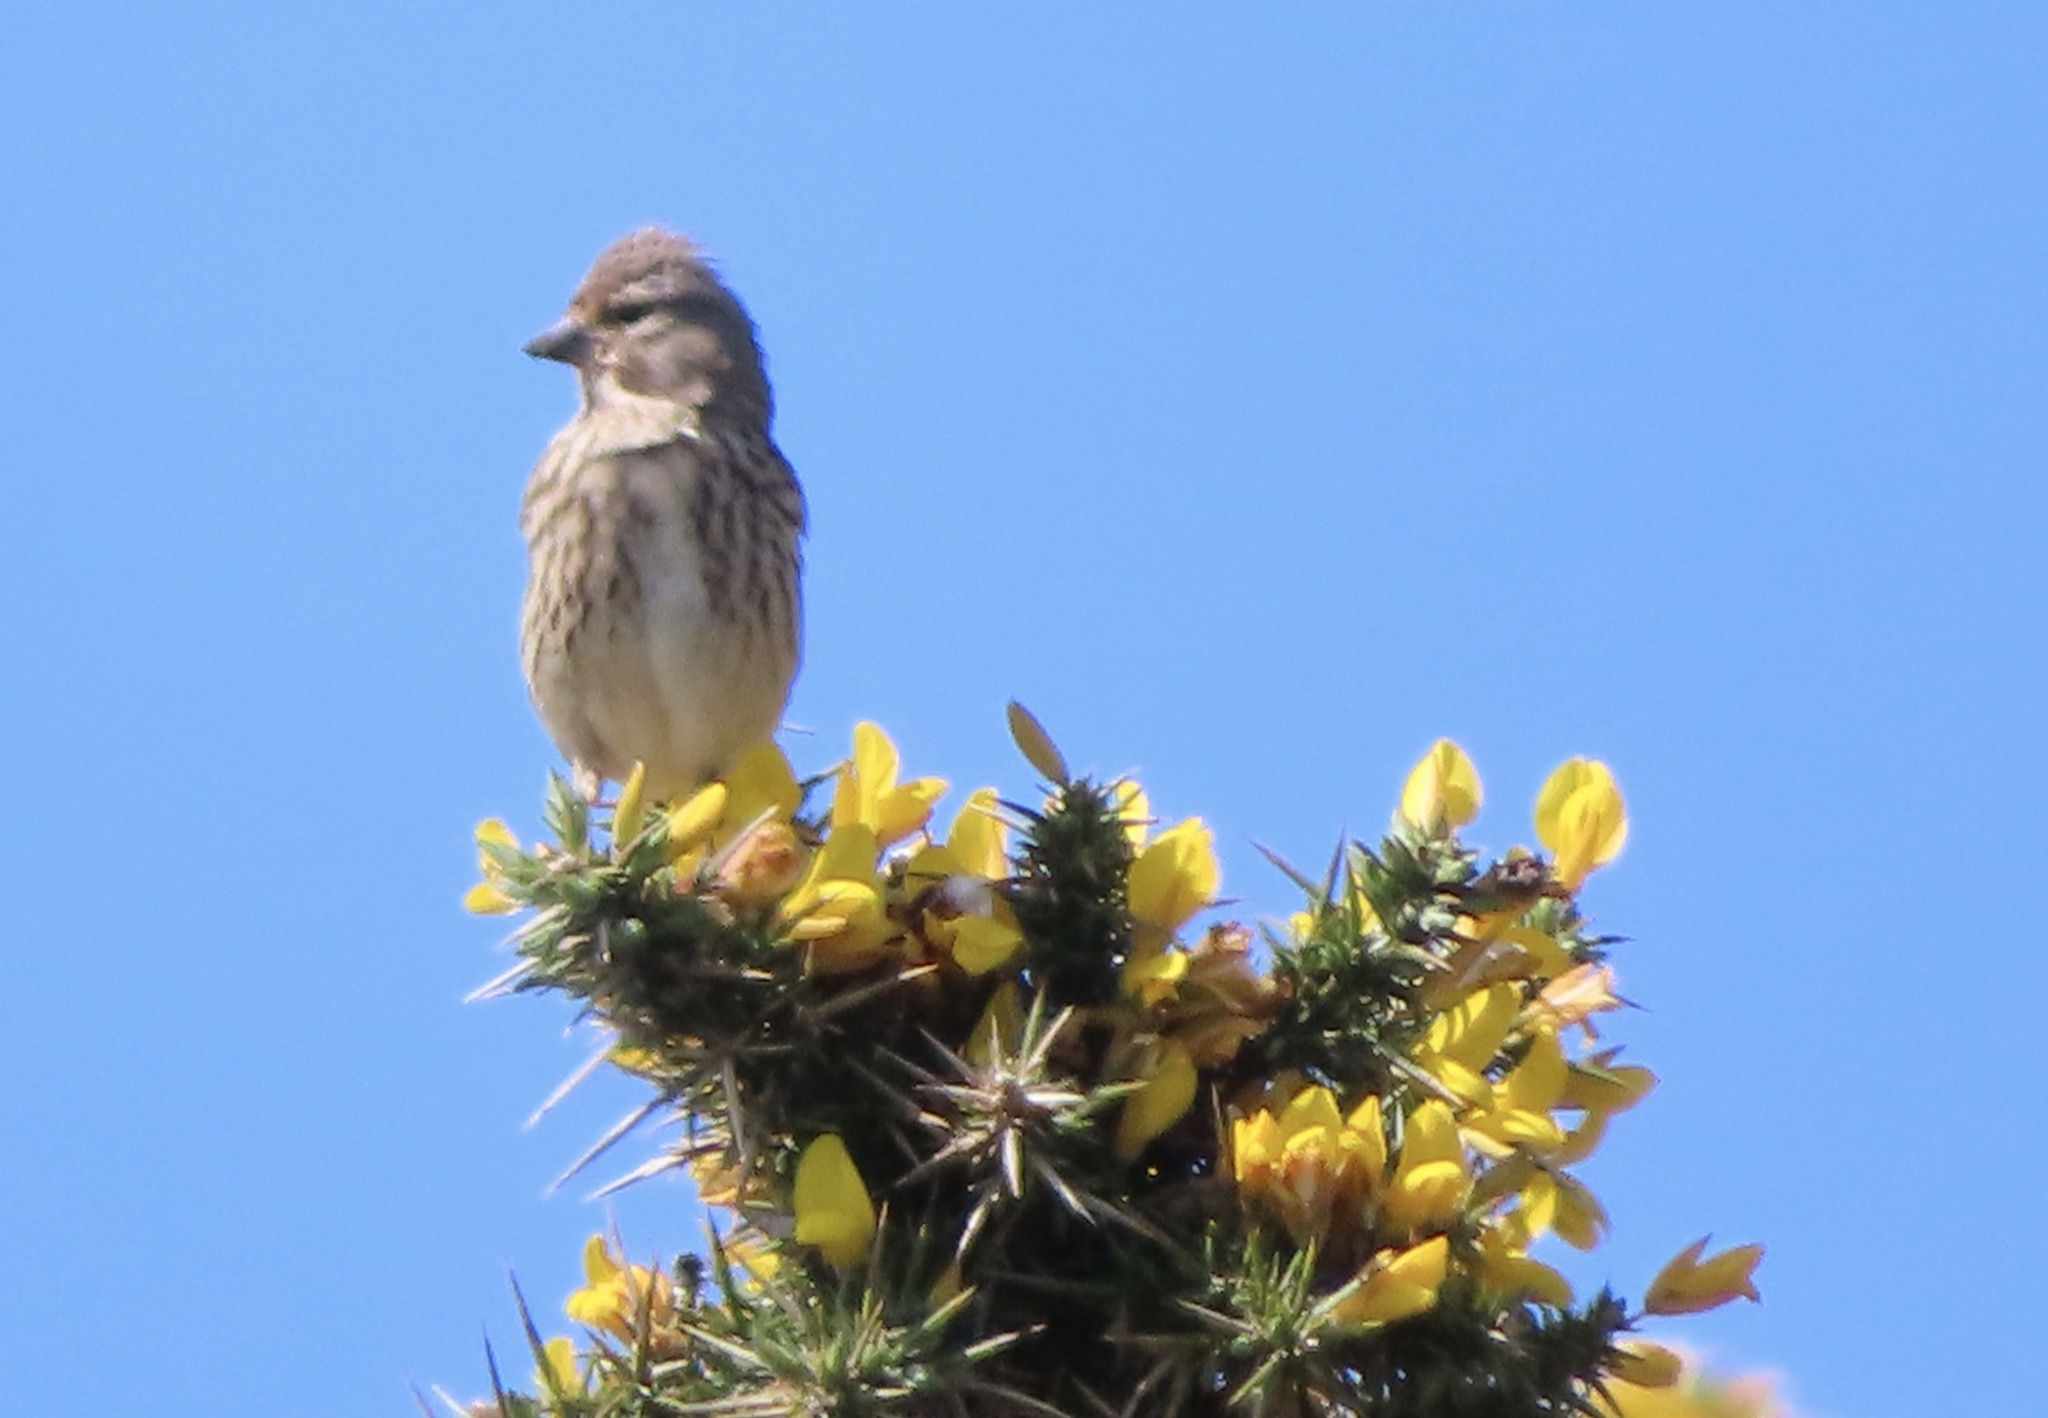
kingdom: Animalia
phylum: Chordata
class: Aves
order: Passeriformes
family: Fringillidae
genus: Linaria
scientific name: Linaria cannabina
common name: Common linnet
